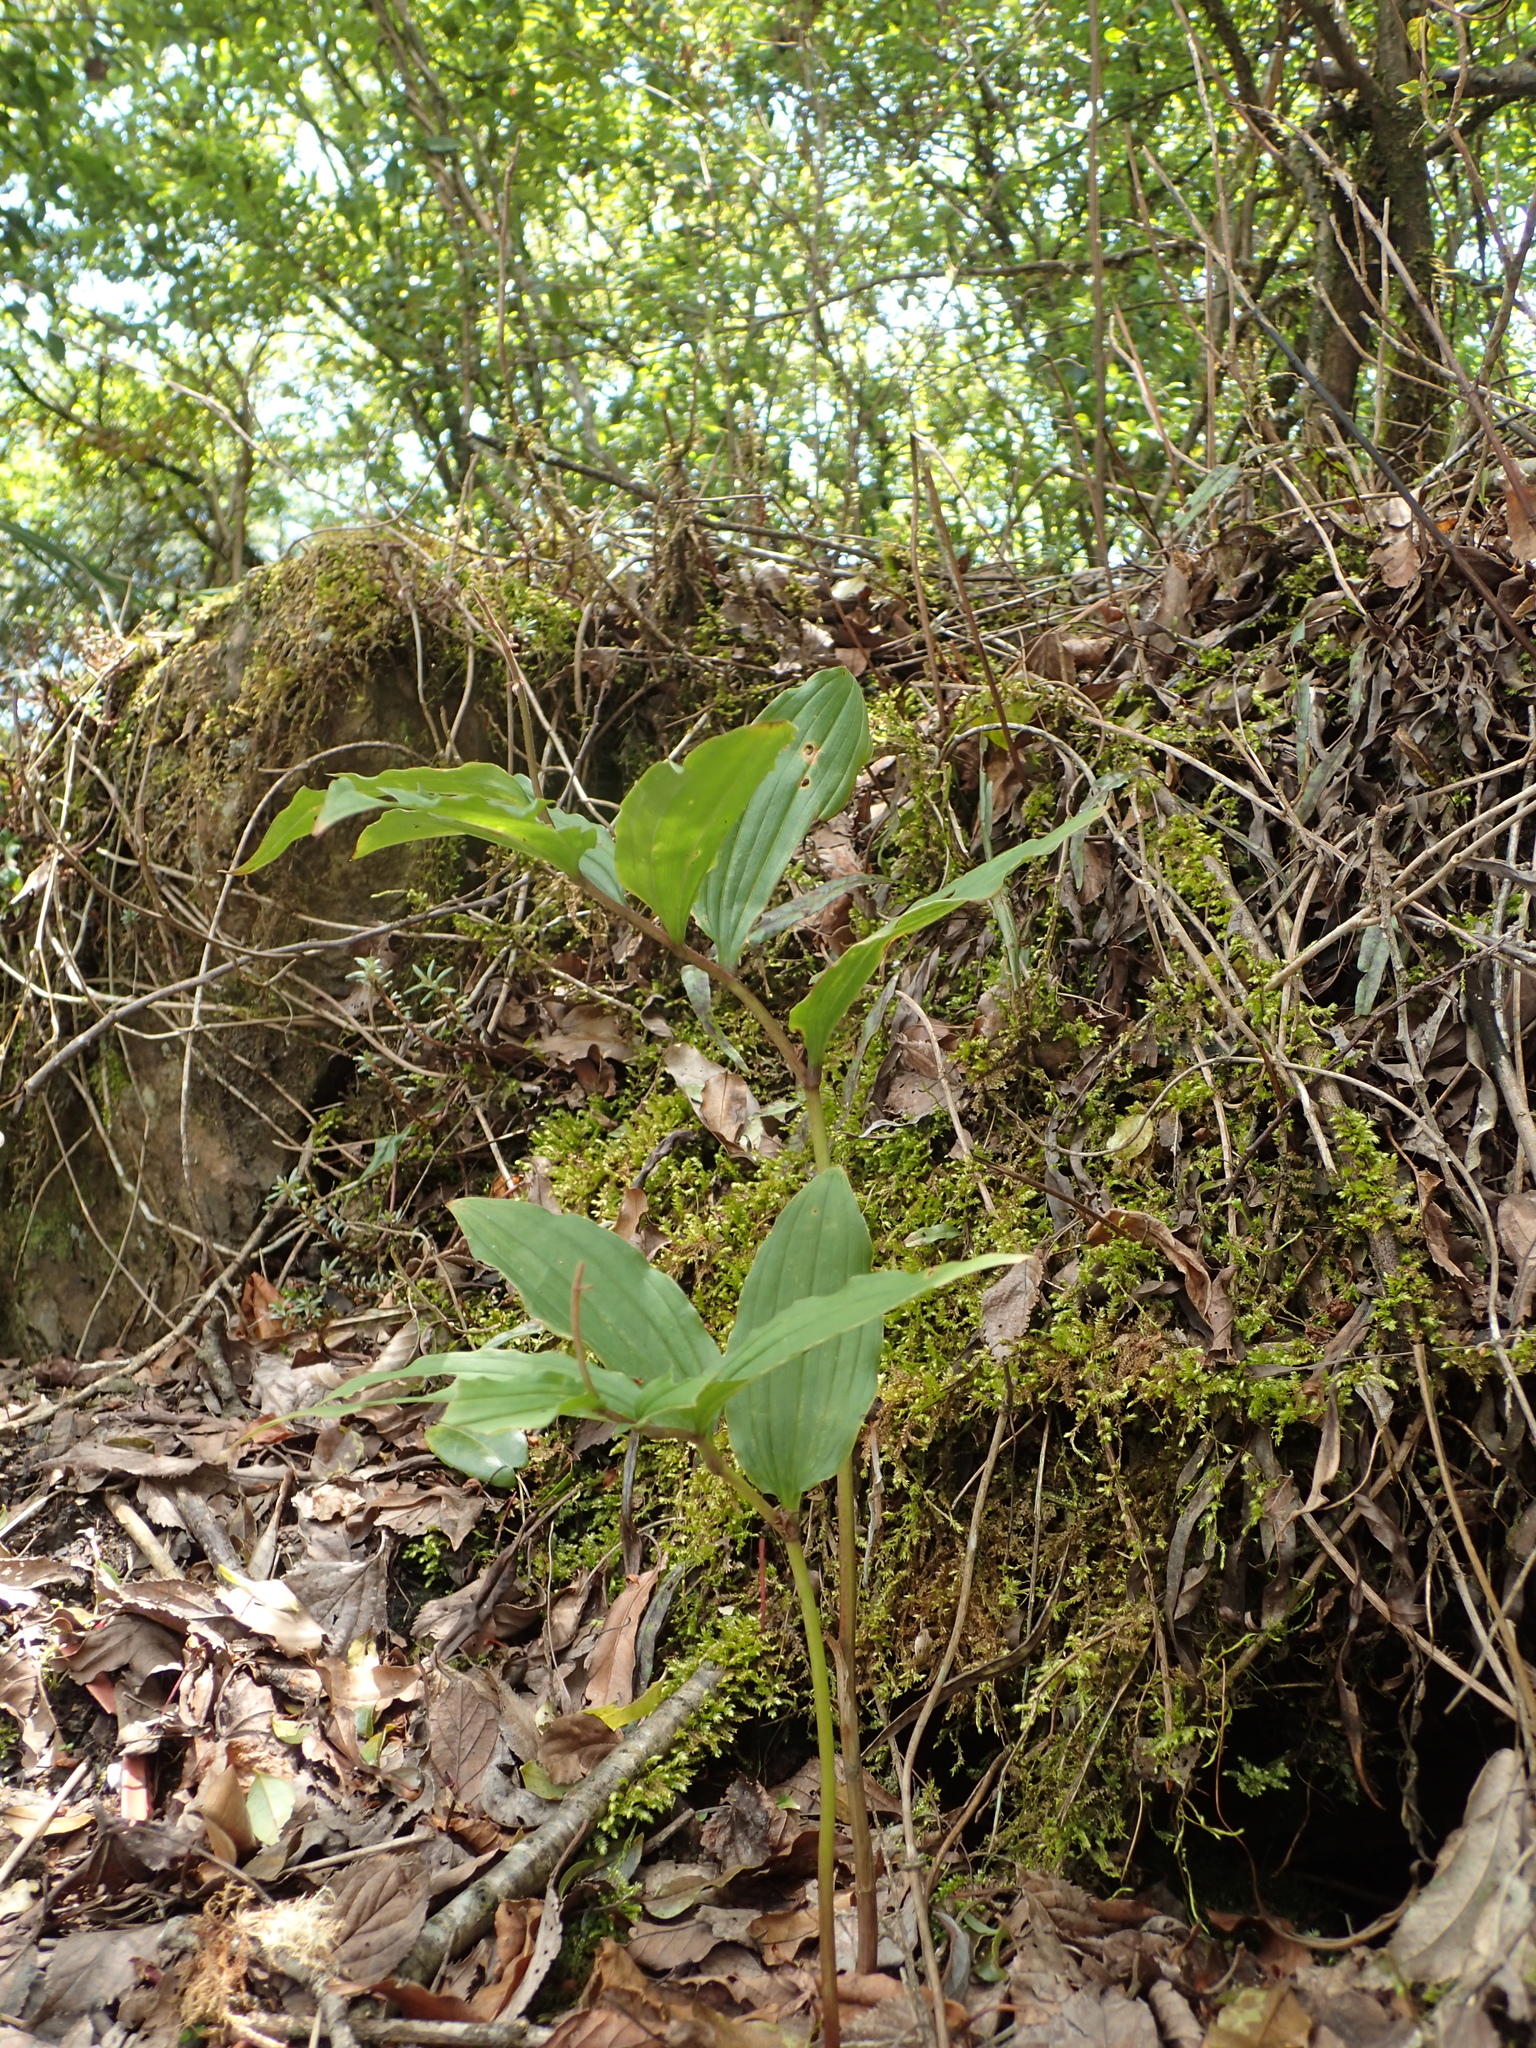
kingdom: Plantae
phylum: Tracheophyta
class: Liliopsida
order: Asparagales
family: Asparagaceae
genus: Maianthemum
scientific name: Maianthemum formosanum
